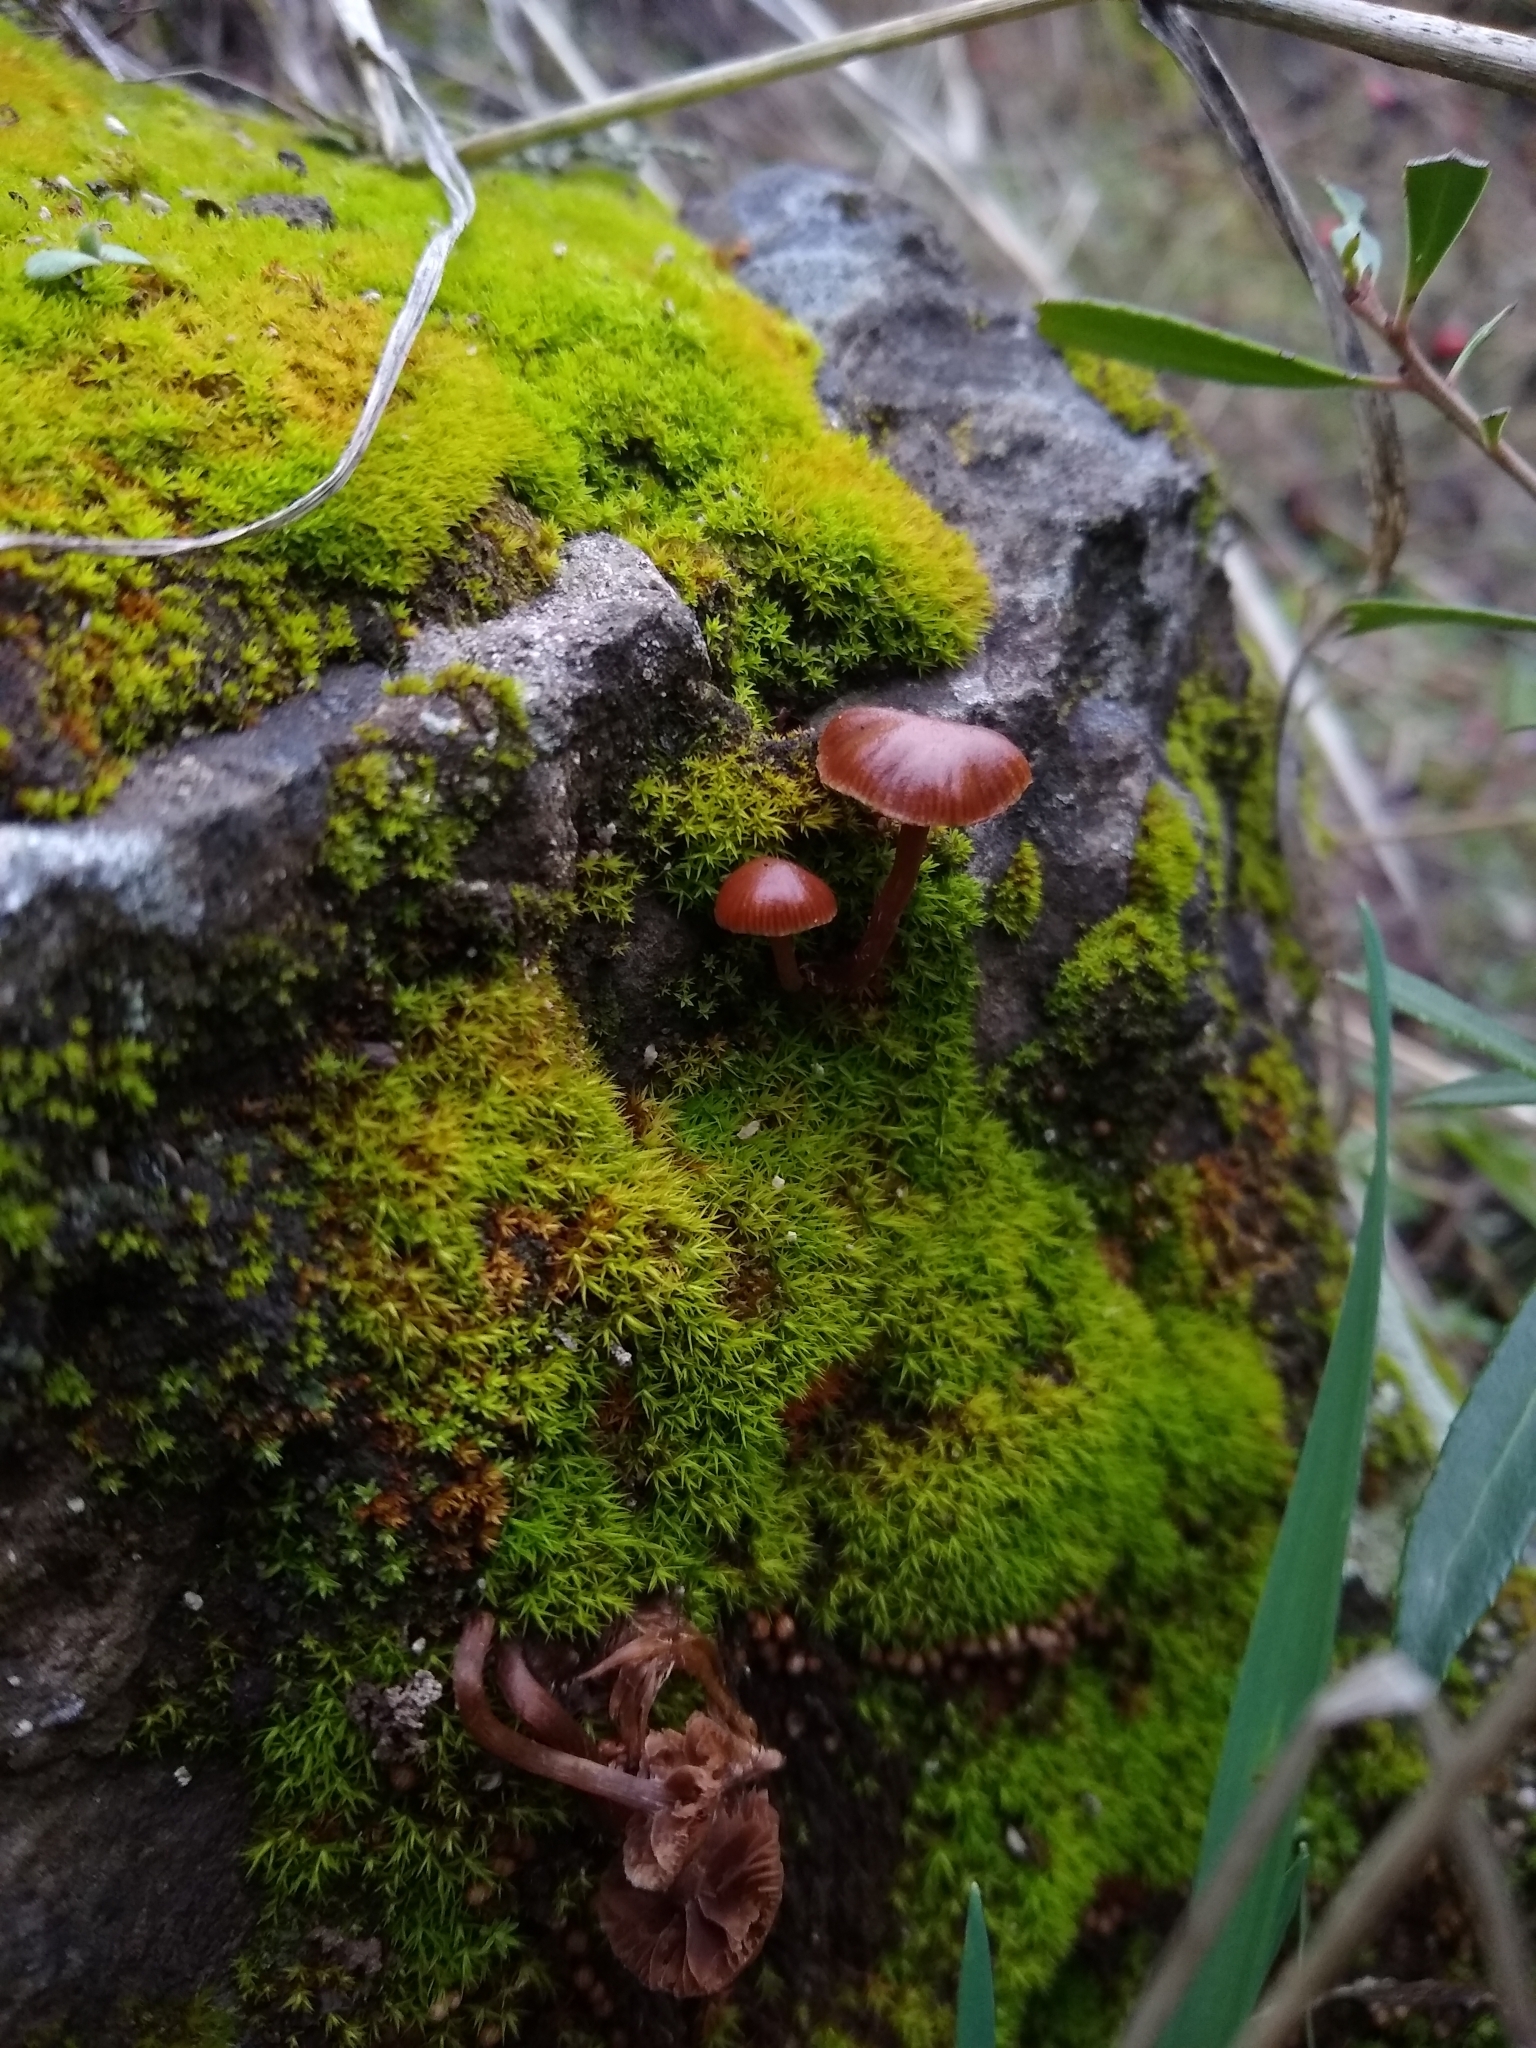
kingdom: Fungi
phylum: Basidiomycota
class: Agaricomycetes
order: Agaricales
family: Strophariaceae
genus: Deconica
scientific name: Deconica montana
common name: Mountain moss deconica
